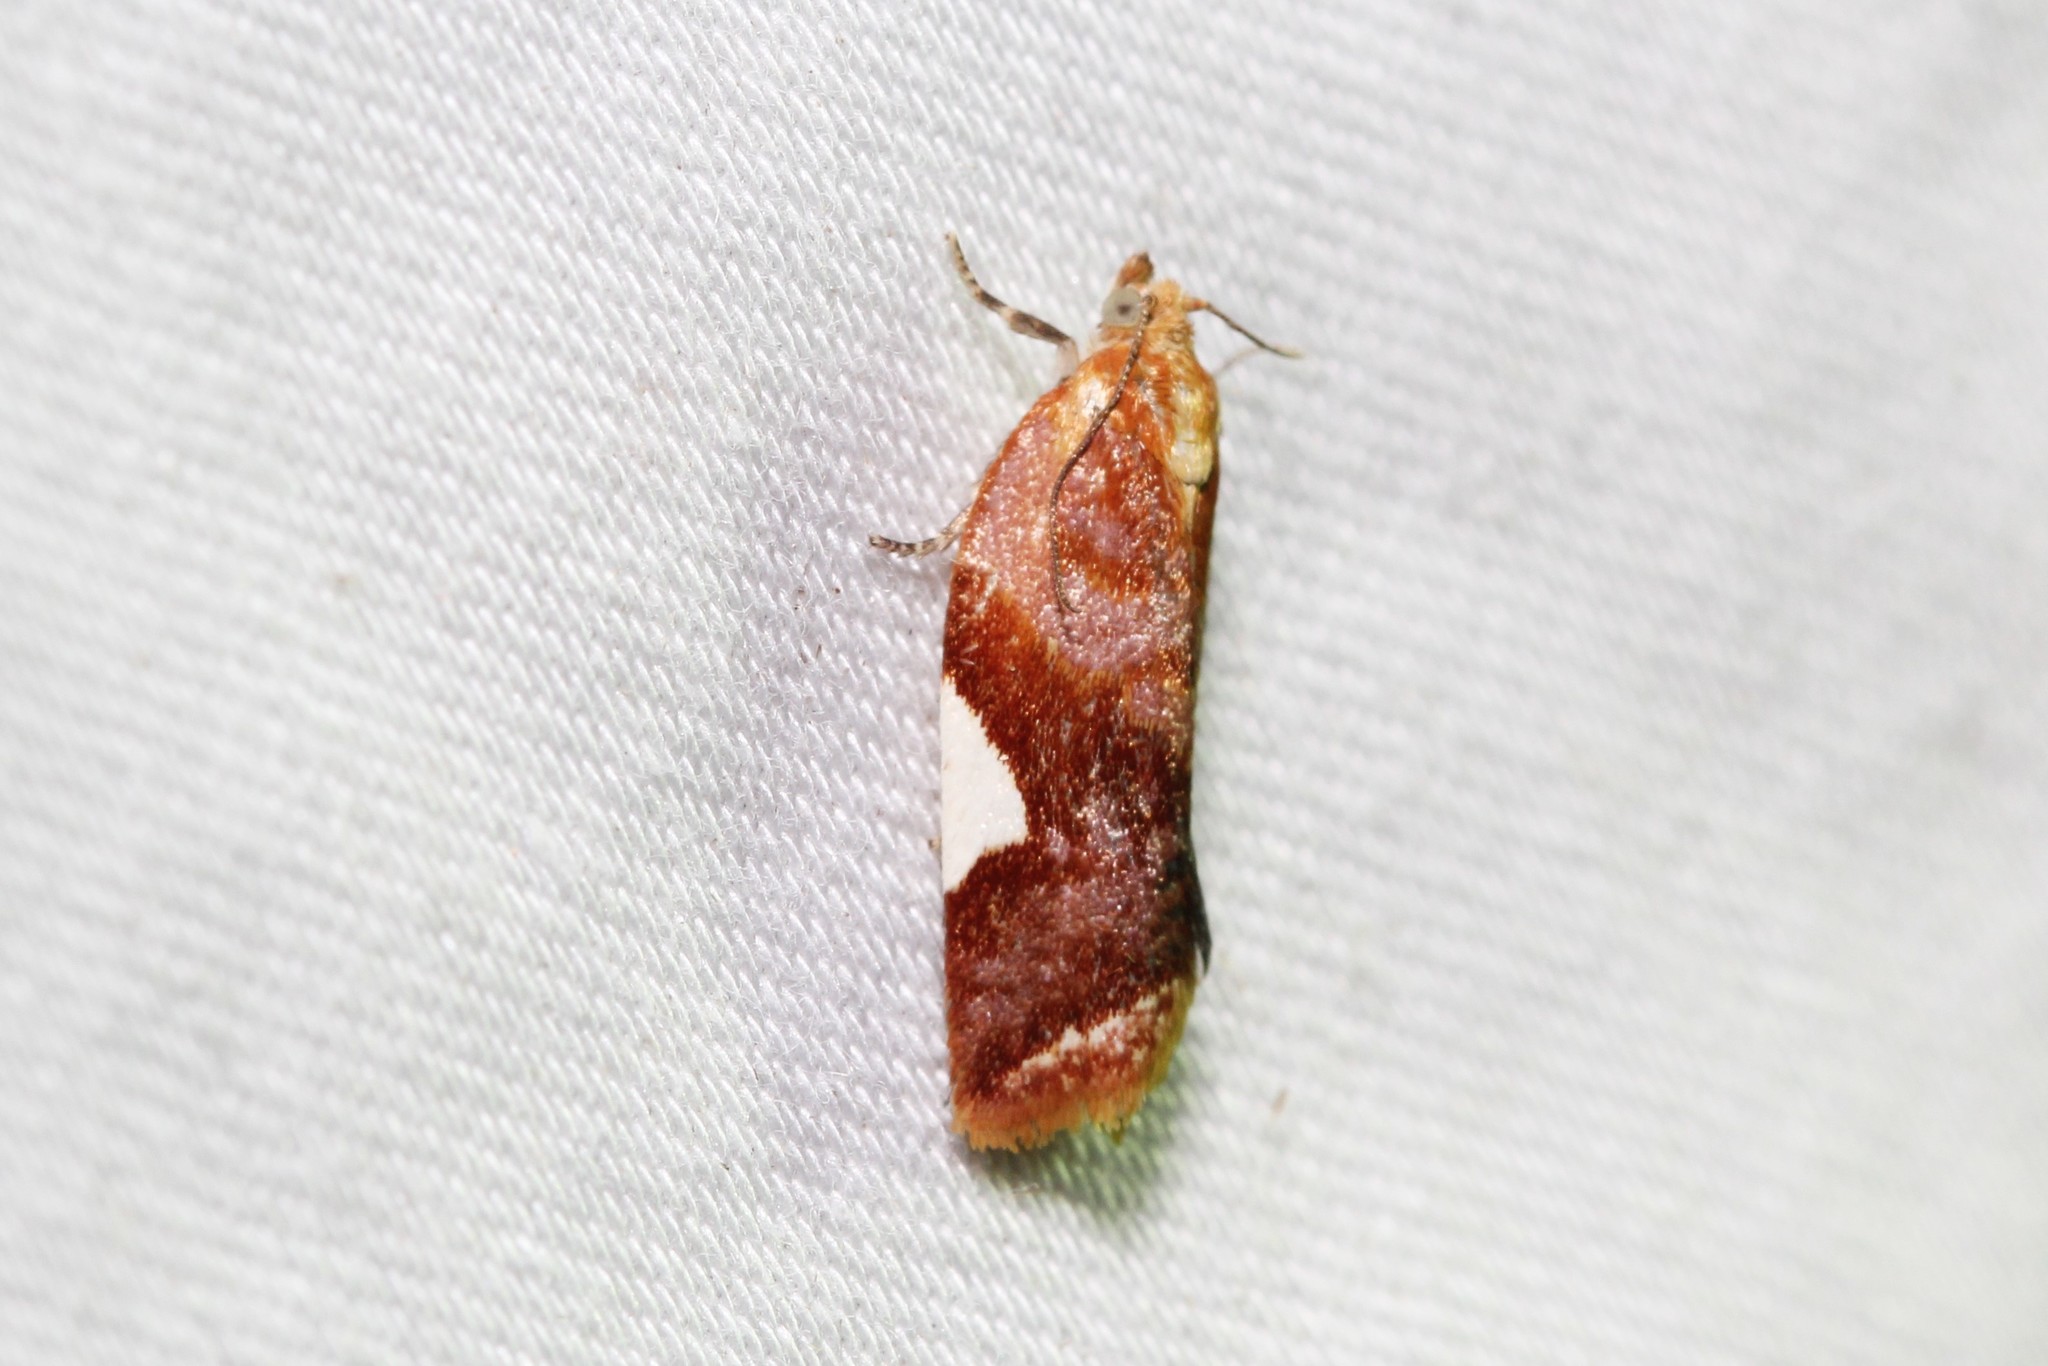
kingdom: Animalia
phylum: Arthropoda
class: Insecta
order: Lepidoptera
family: Tortricidae
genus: Clepsis
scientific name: Clepsis persicana
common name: White triangle tortrix
